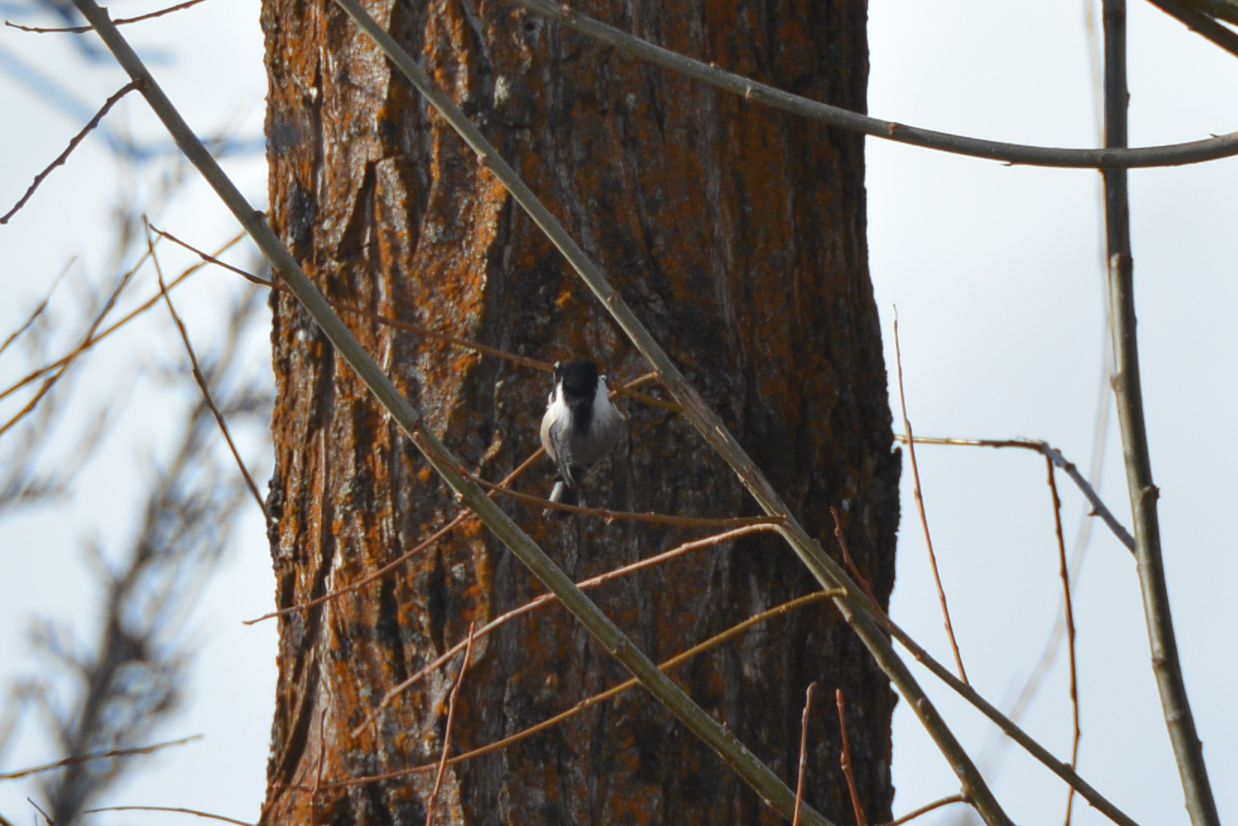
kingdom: Animalia
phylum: Chordata
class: Aves
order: Passeriformes
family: Paridae
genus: Poecile
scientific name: Poecile atricapillus
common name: Black-capped chickadee
